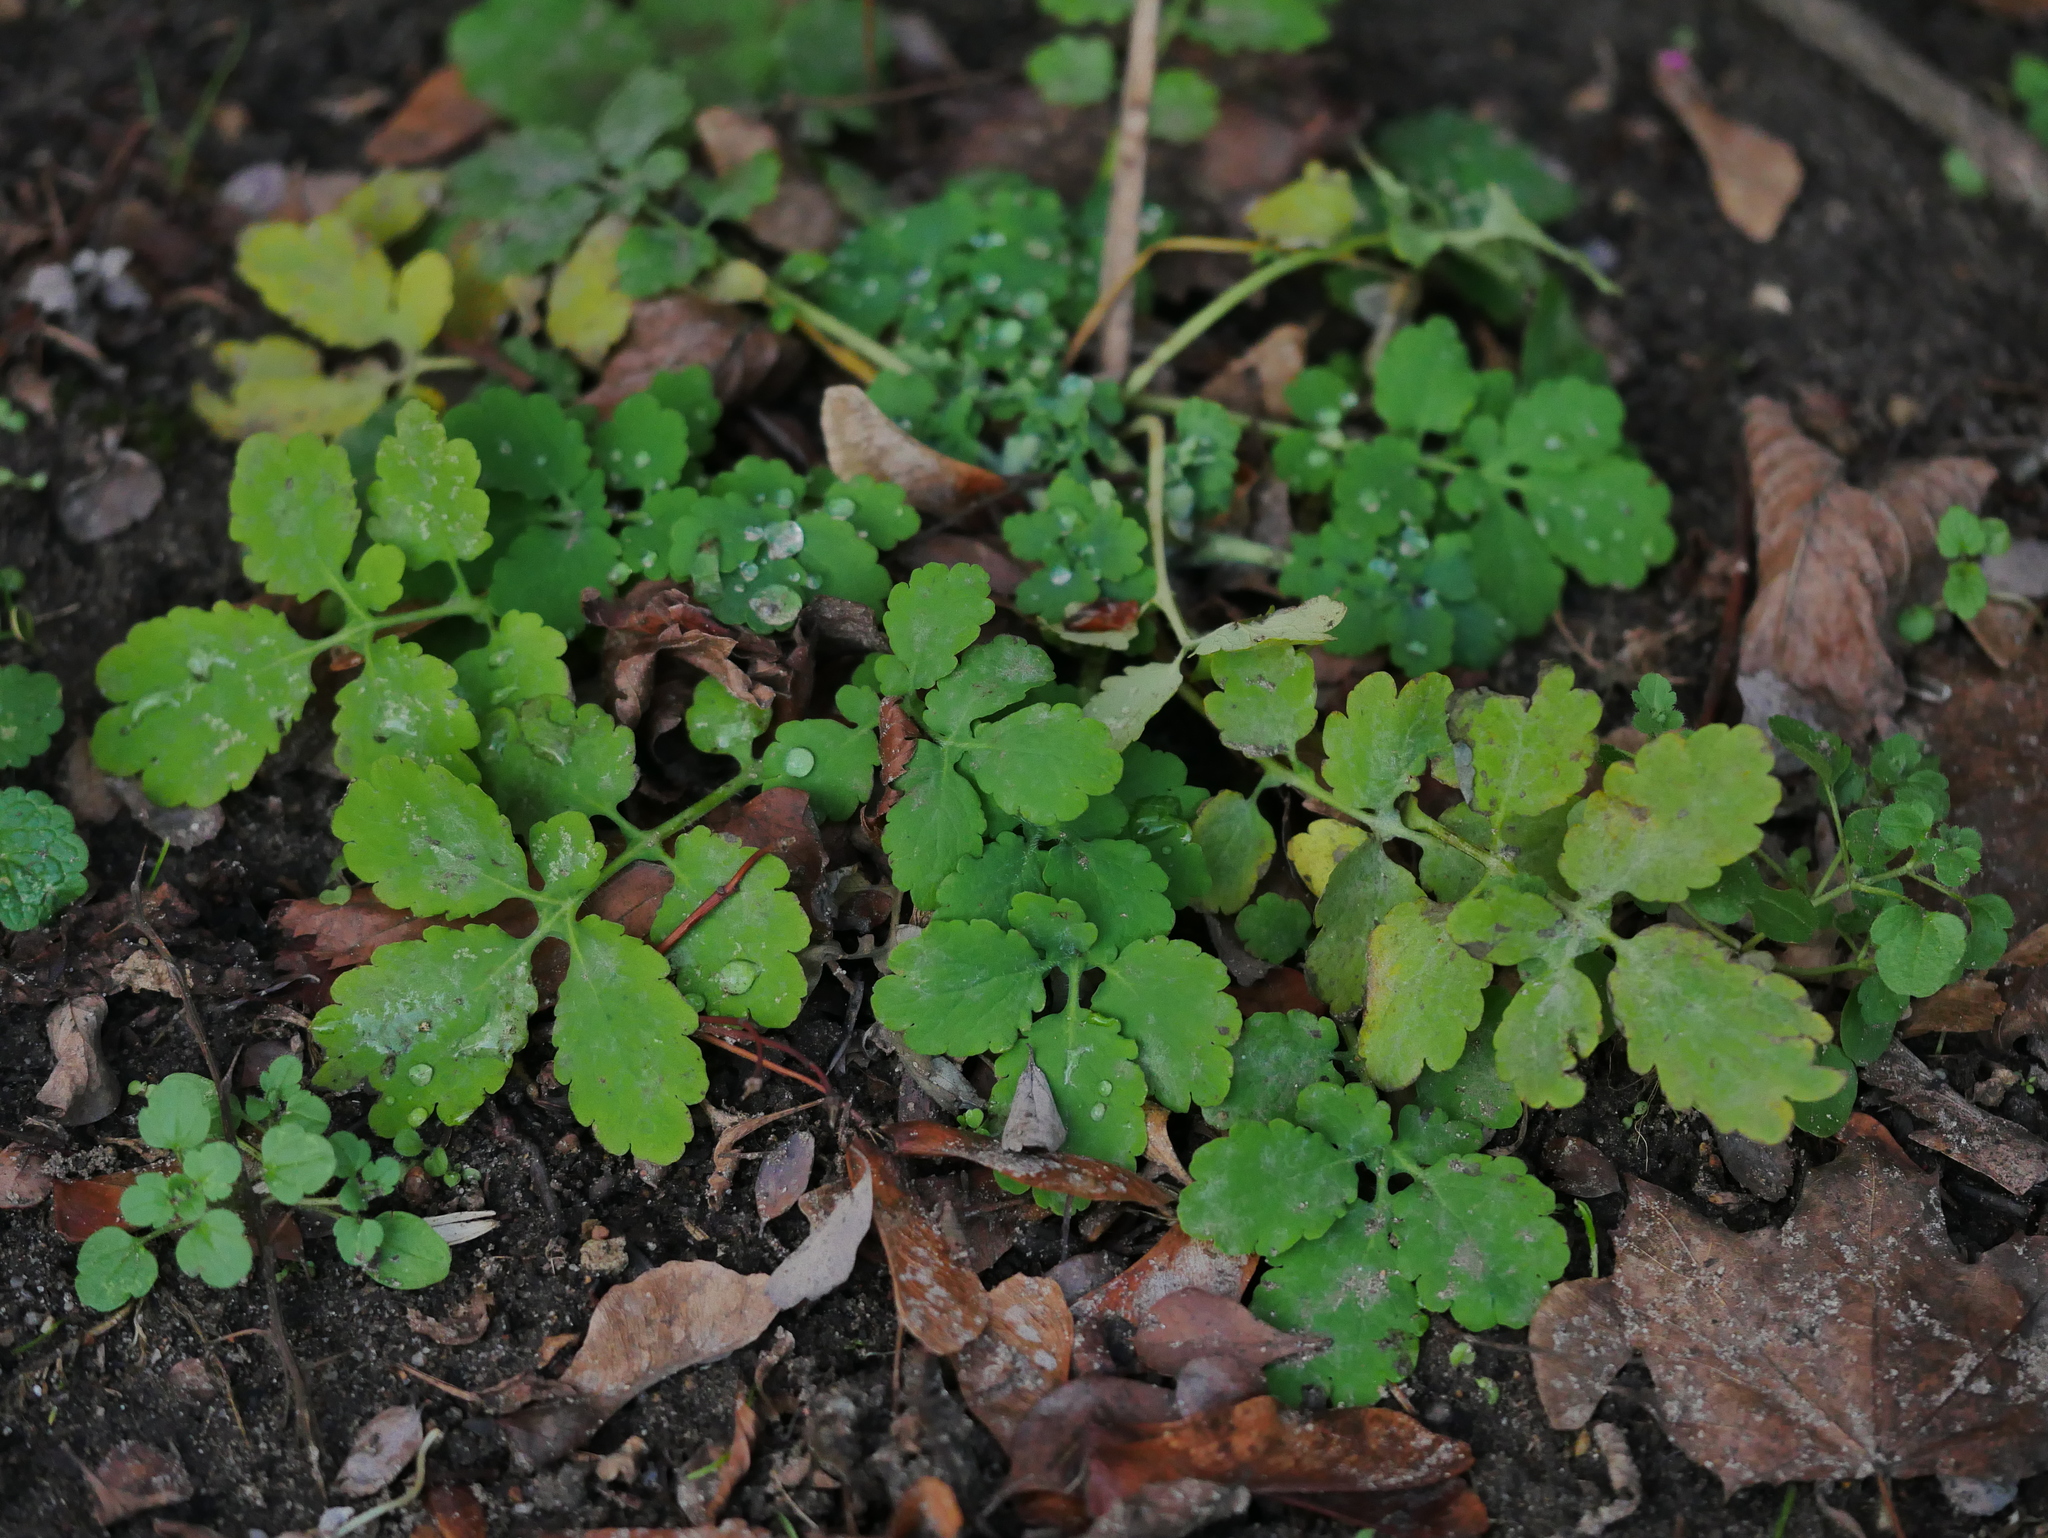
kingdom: Plantae
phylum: Tracheophyta
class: Magnoliopsida
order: Ranunculales
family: Papaveraceae
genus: Chelidonium
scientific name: Chelidonium majus
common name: Greater celandine
